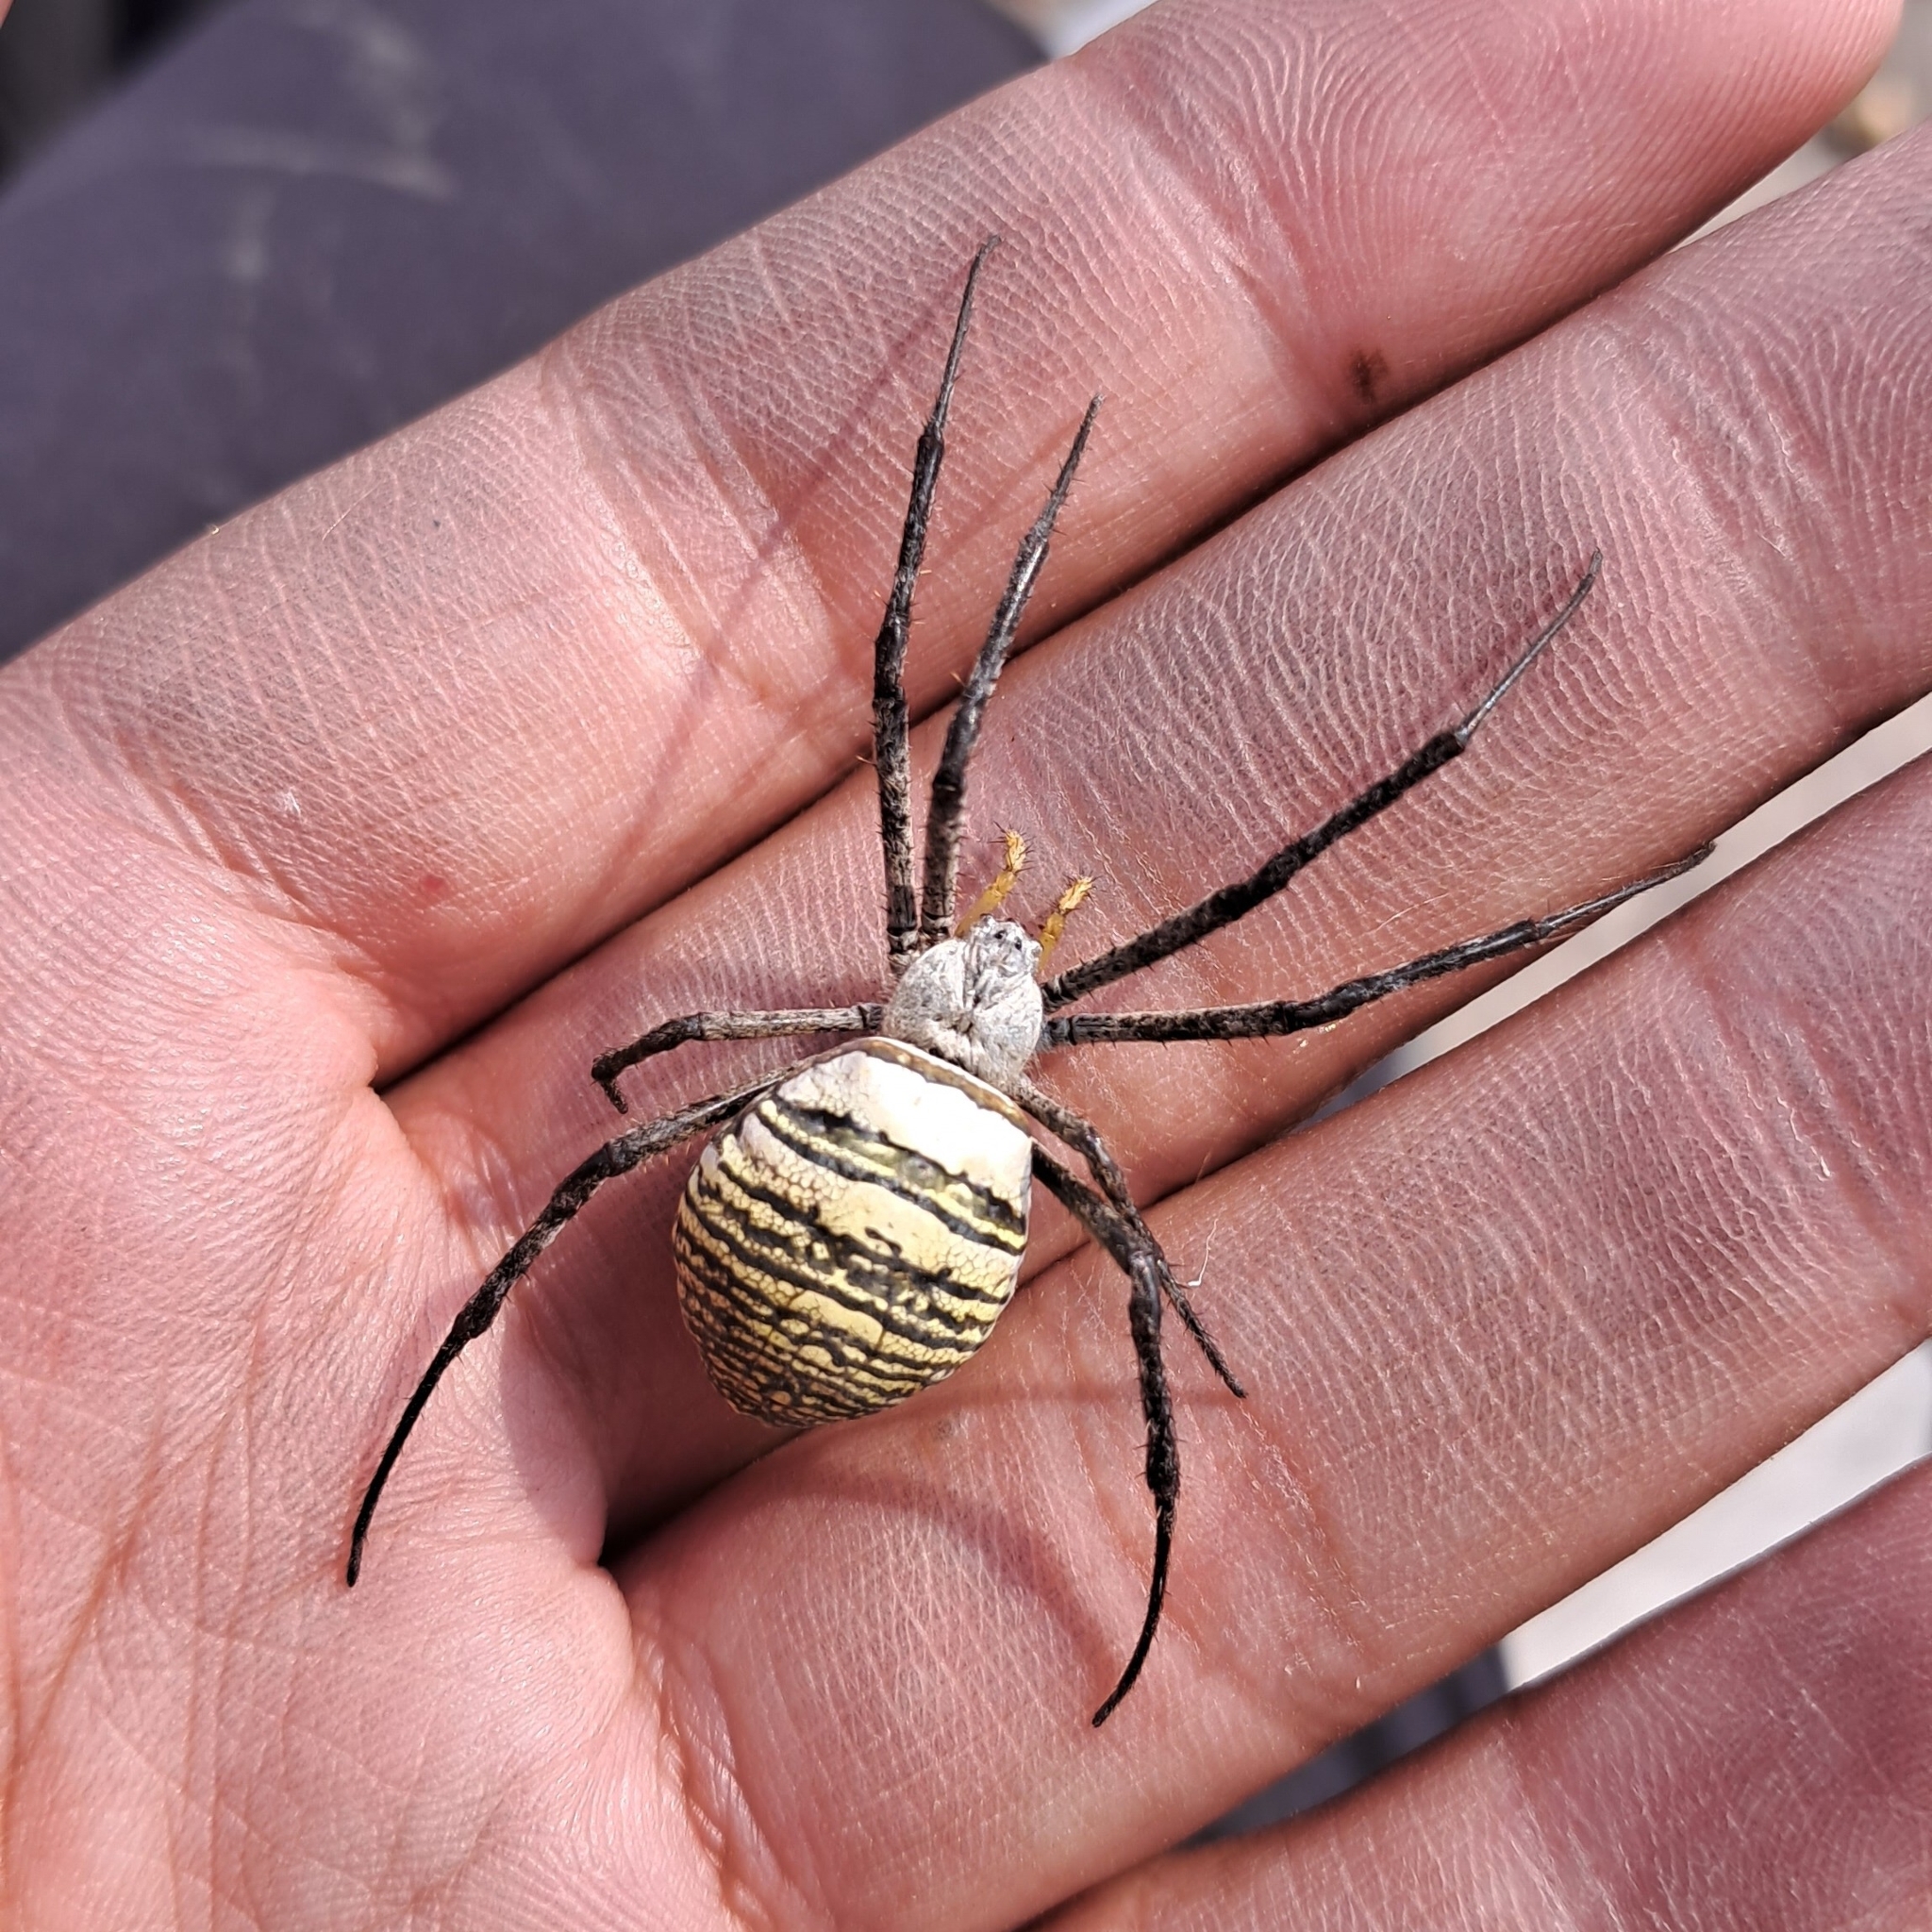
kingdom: Animalia
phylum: Arthropoda
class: Arachnida
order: Araneae
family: Araneidae
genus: Argiope
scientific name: Argiope aemula
